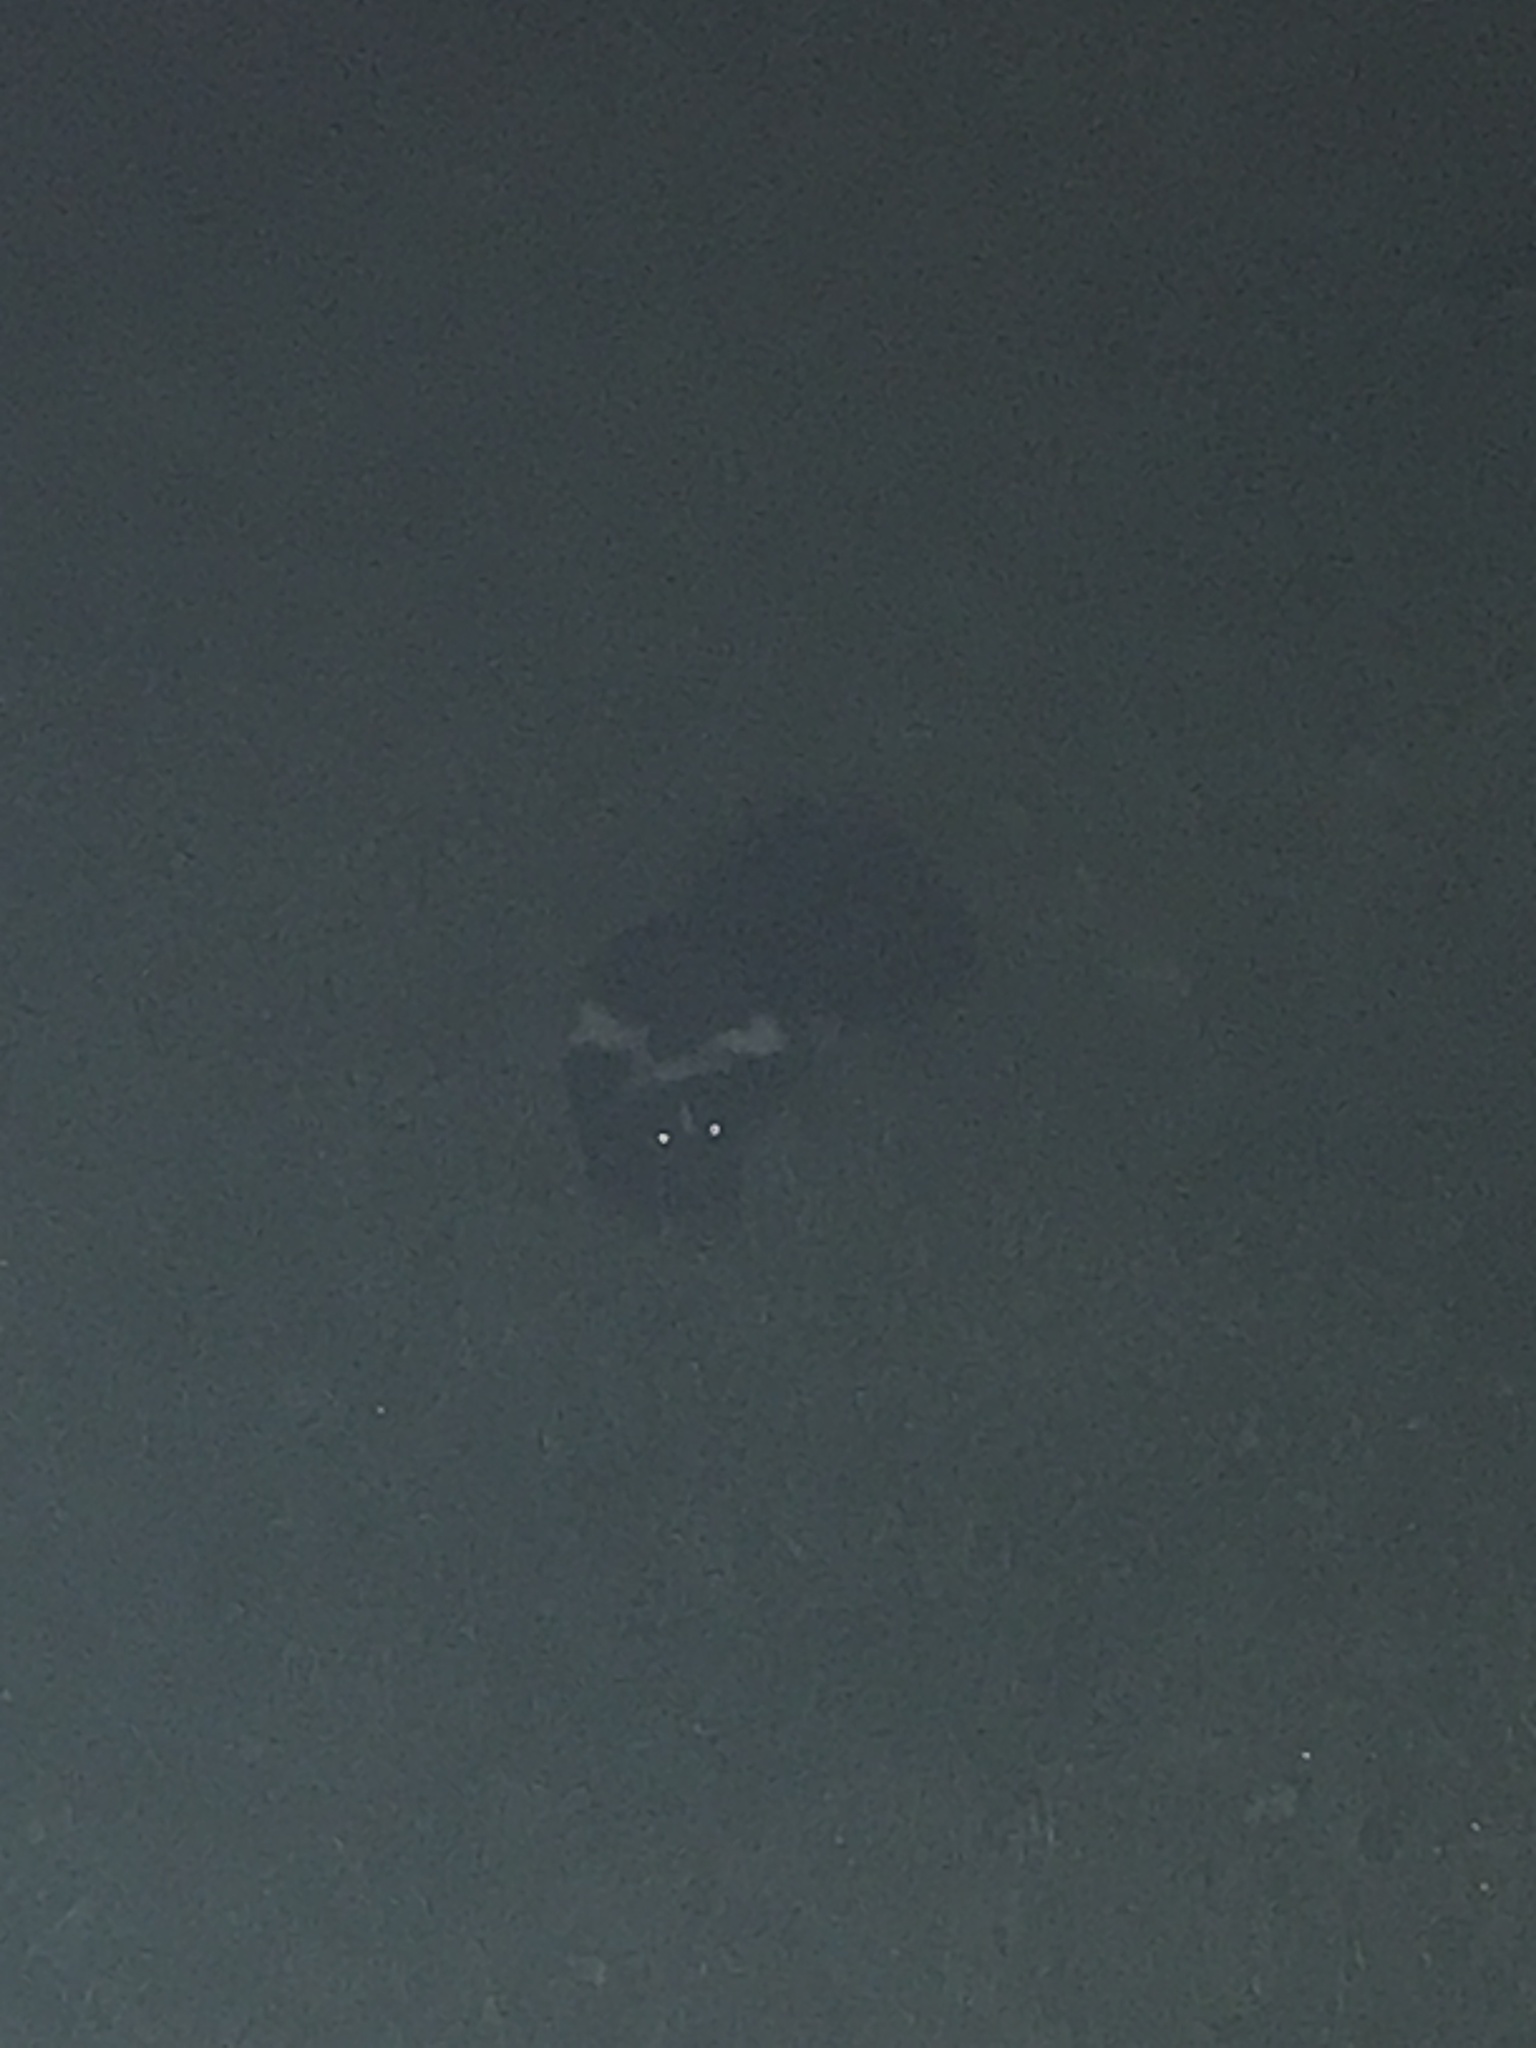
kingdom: Animalia
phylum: Chordata
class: Mammalia
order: Carnivora
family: Mephitidae
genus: Mephitis
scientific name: Mephitis mephitis
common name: Striped skunk
